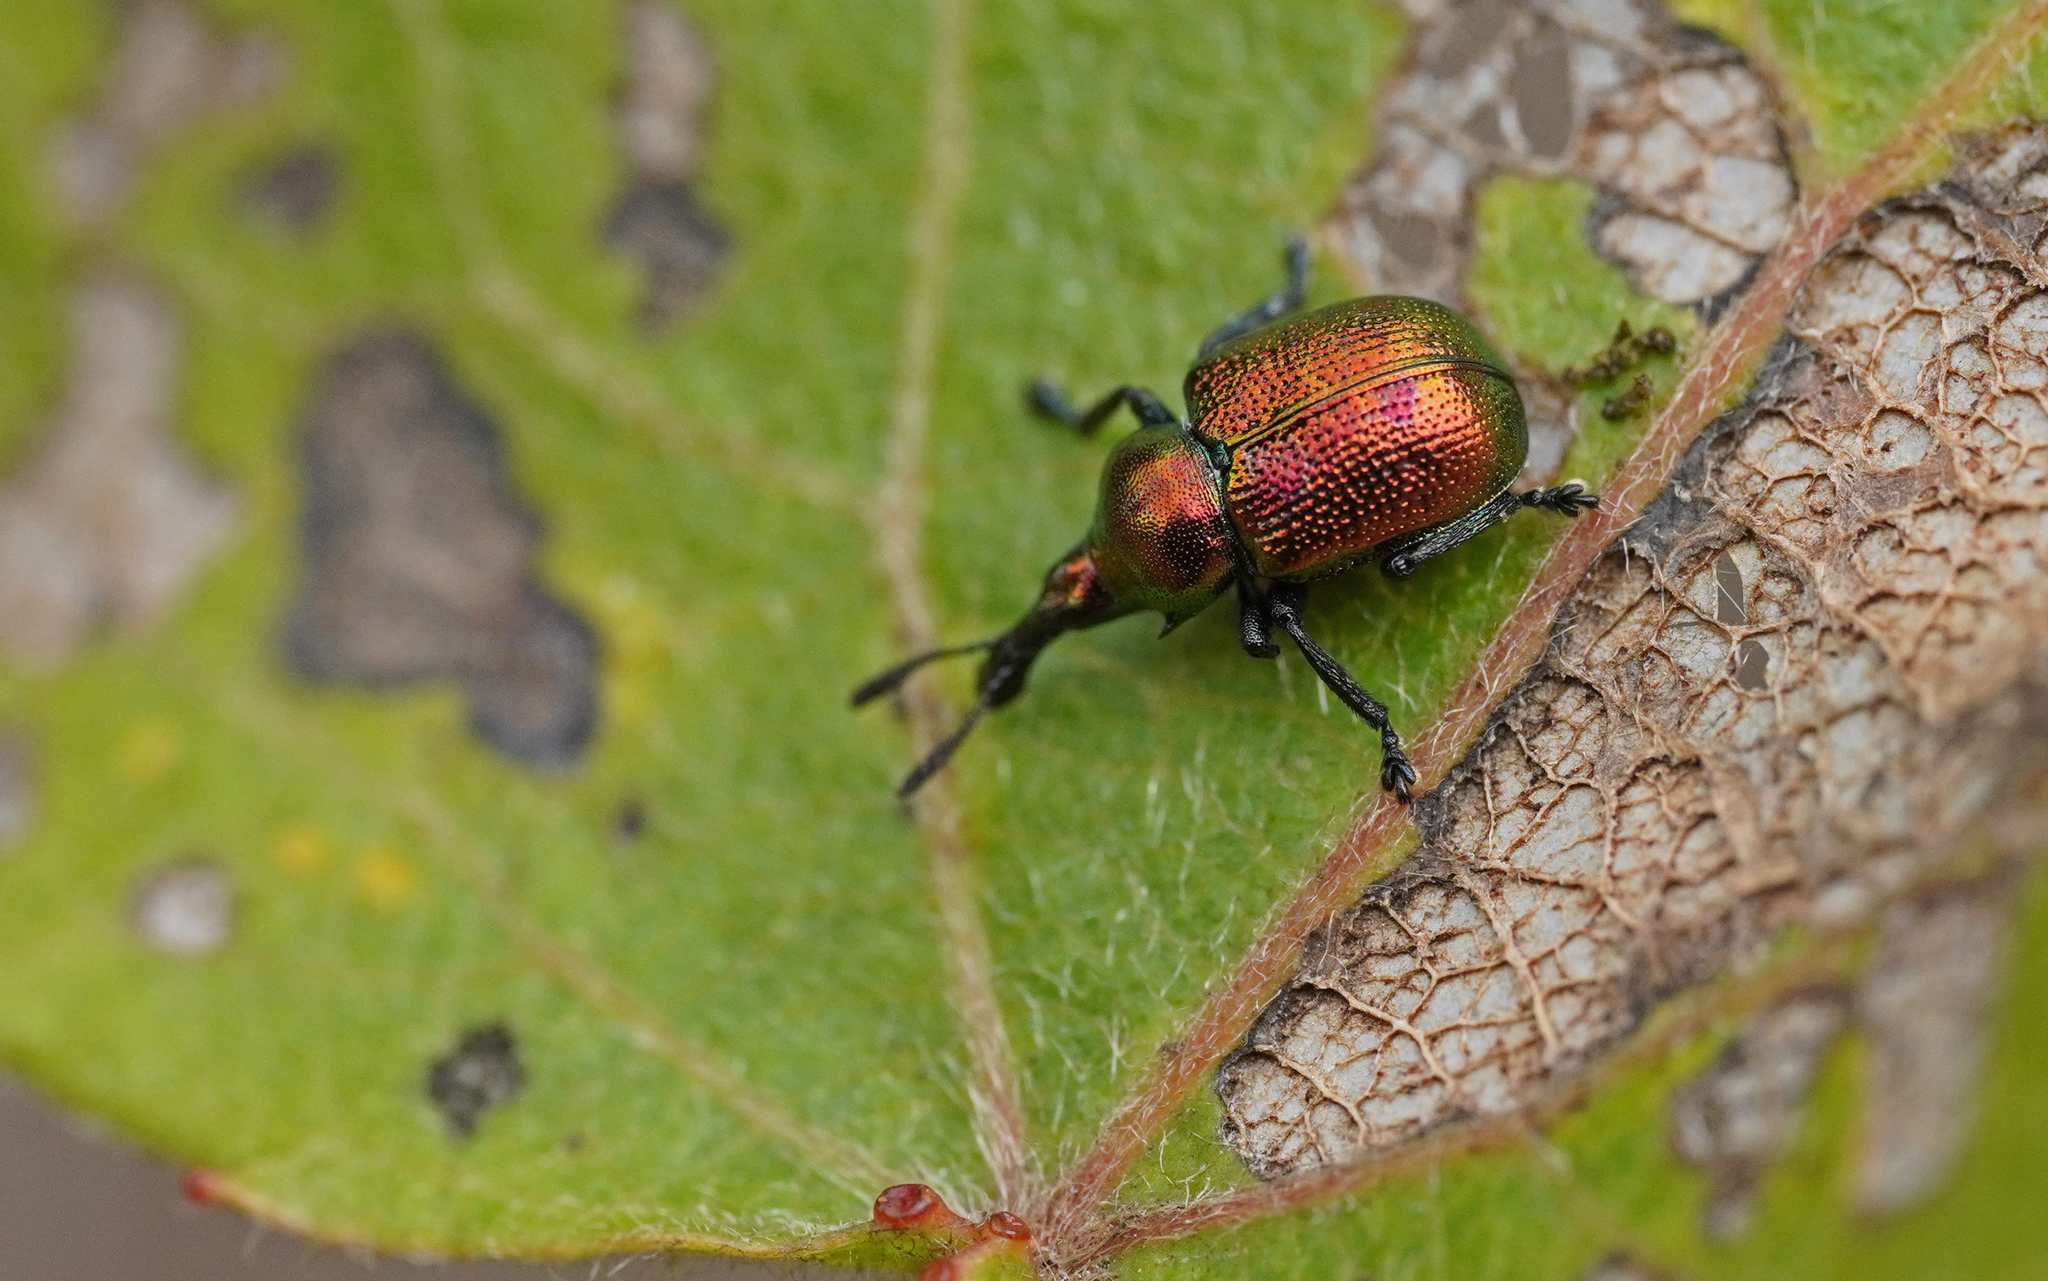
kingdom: Animalia
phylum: Arthropoda
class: Insecta
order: Coleoptera
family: Attelabidae
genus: Byctiscus
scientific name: Byctiscus populi
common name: Leaf-rolling weevil
